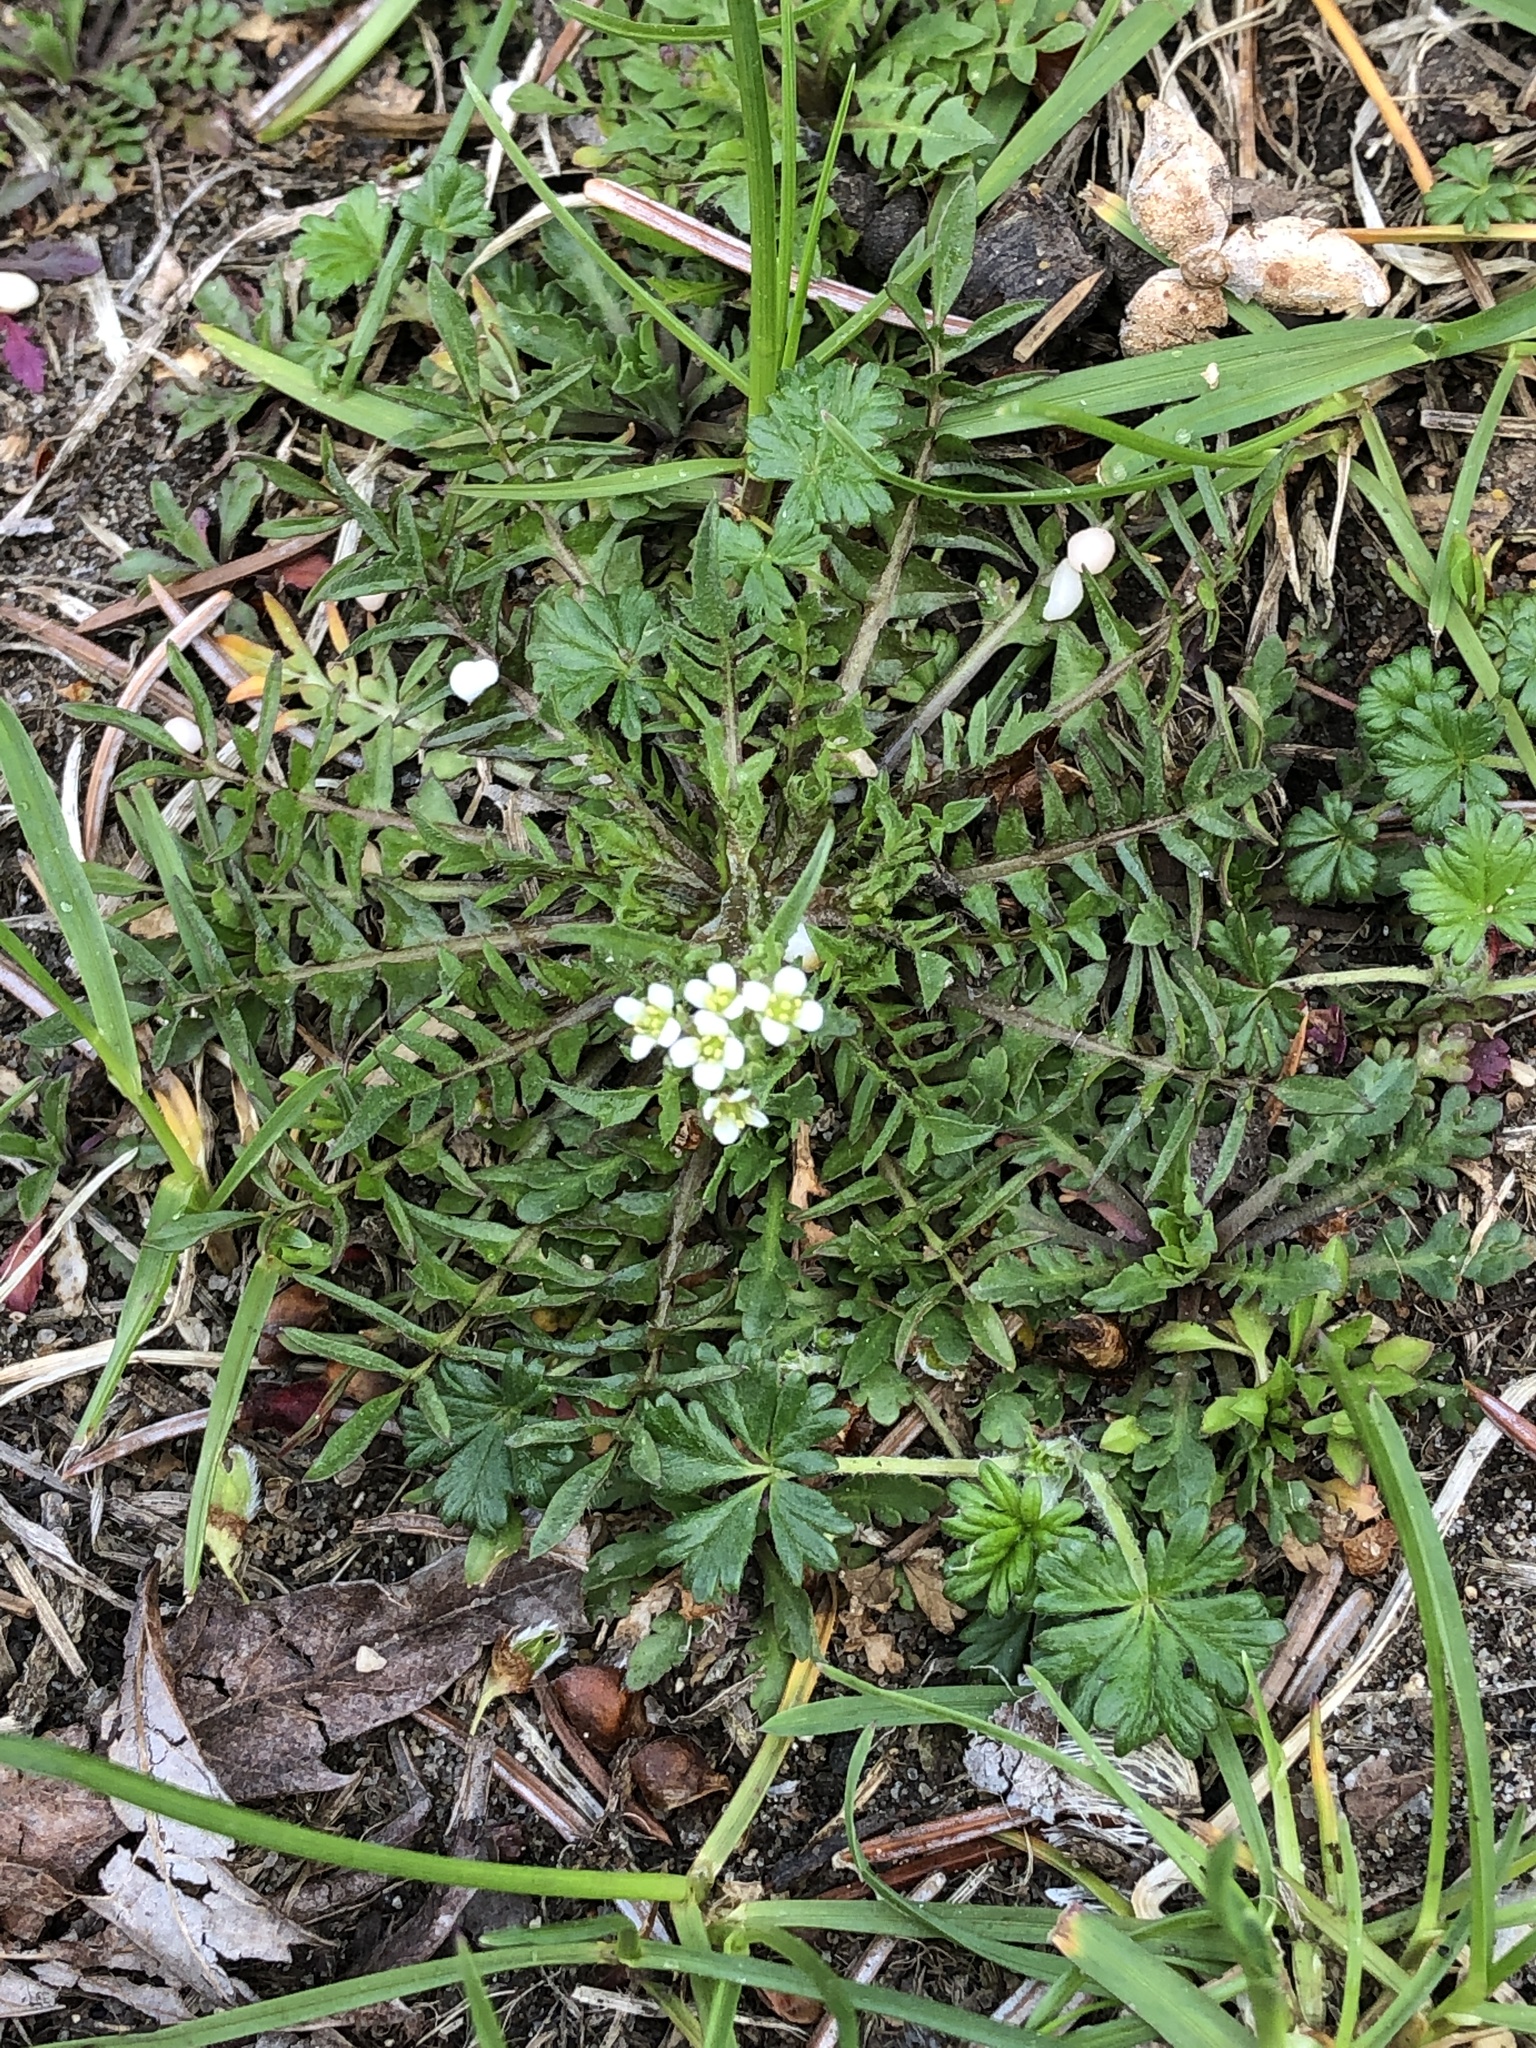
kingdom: Plantae
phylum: Tracheophyta
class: Magnoliopsida
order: Brassicales
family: Brassicaceae
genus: Capsella
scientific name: Capsella bursa-pastoris
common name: Shepherd's purse
